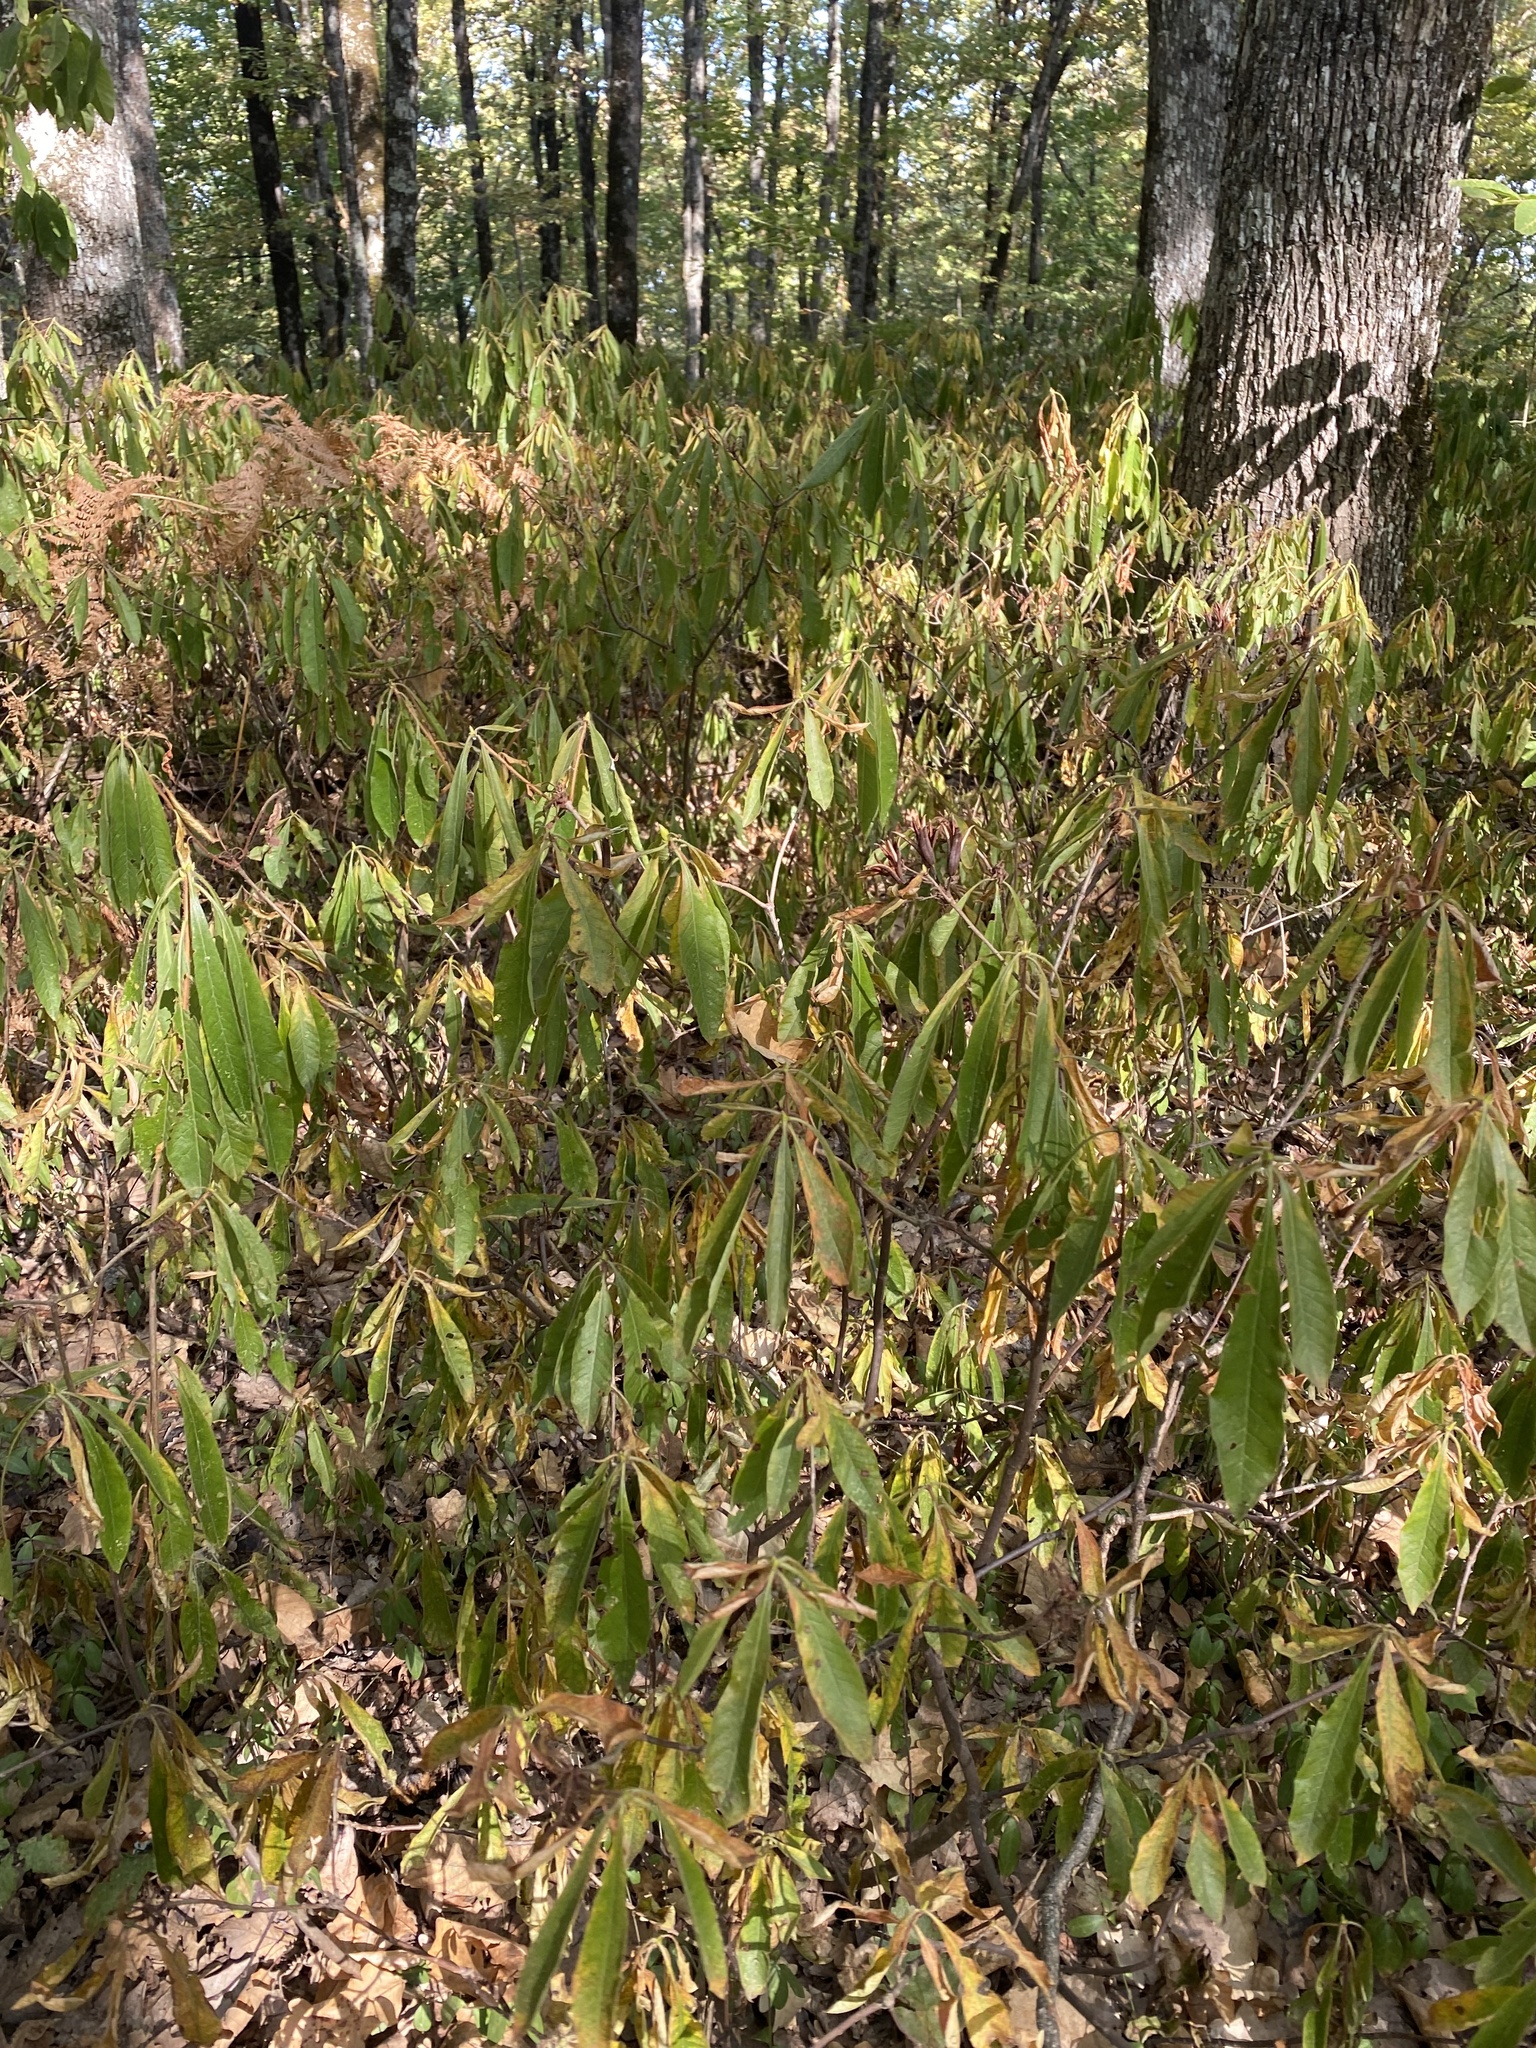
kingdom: Plantae
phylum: Tracheophyta
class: Magnoliopsida
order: Ericales
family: Ericaceae
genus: Rhododendron
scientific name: Rhododendron luteum
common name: Yellow azalea
